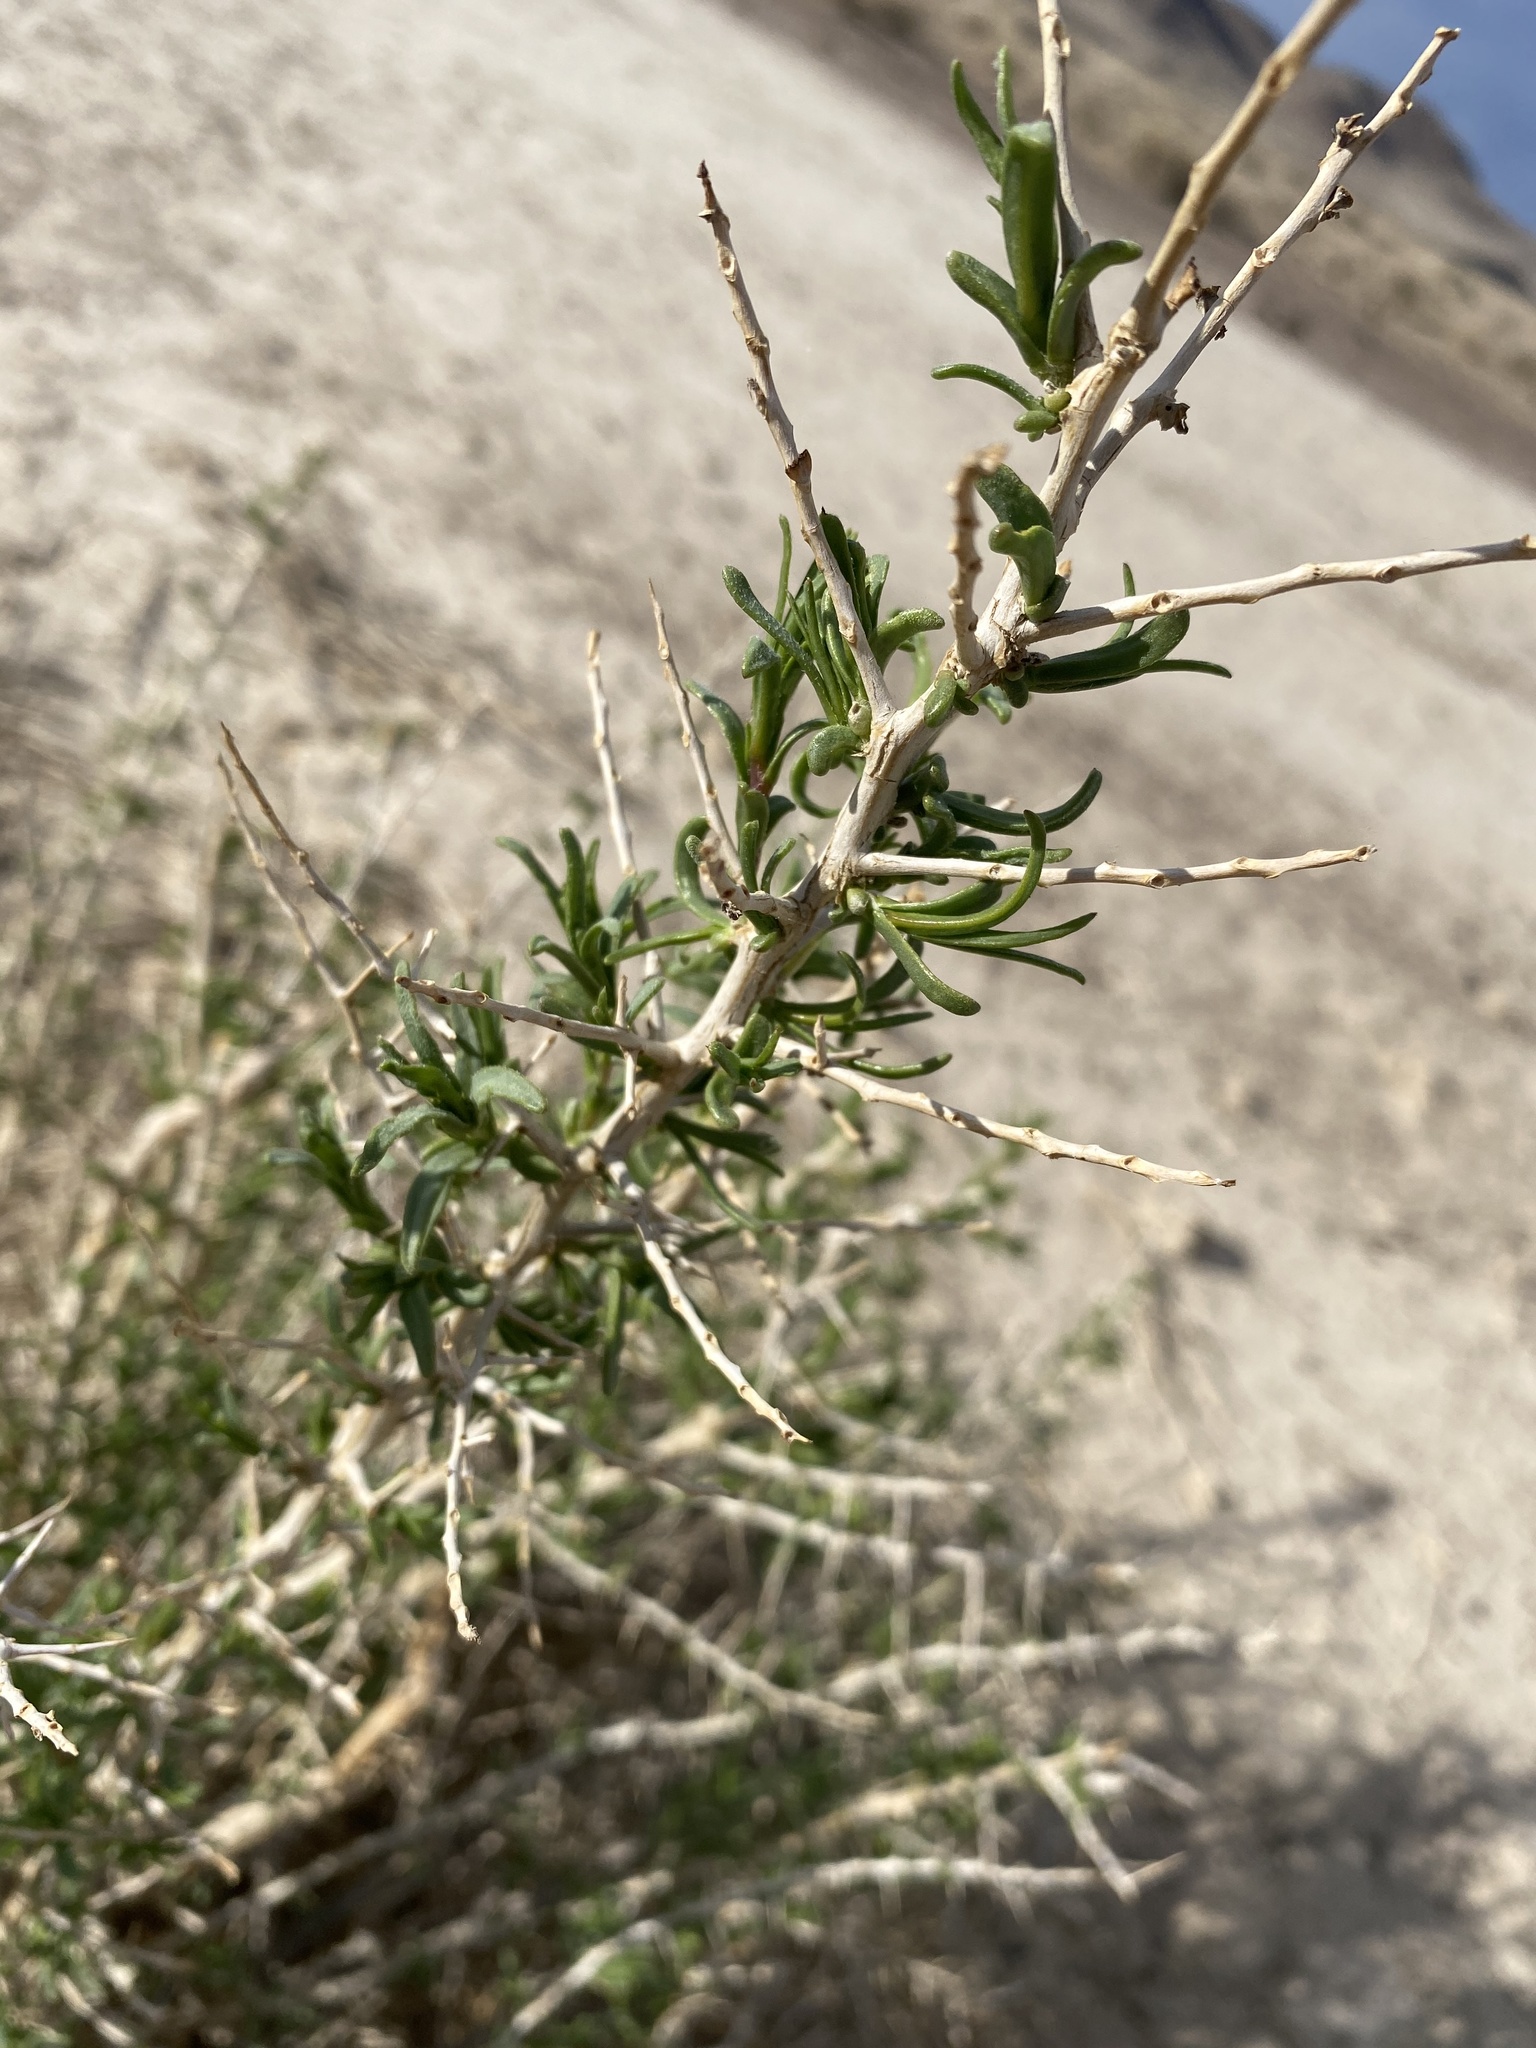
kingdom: Plantae
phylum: Tracheophyta
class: Magnoliopsida
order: Caryophyllales
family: Sarcobataceae
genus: Sarcobatus
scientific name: Sarcobatus vermiculatus
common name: Greasewood
